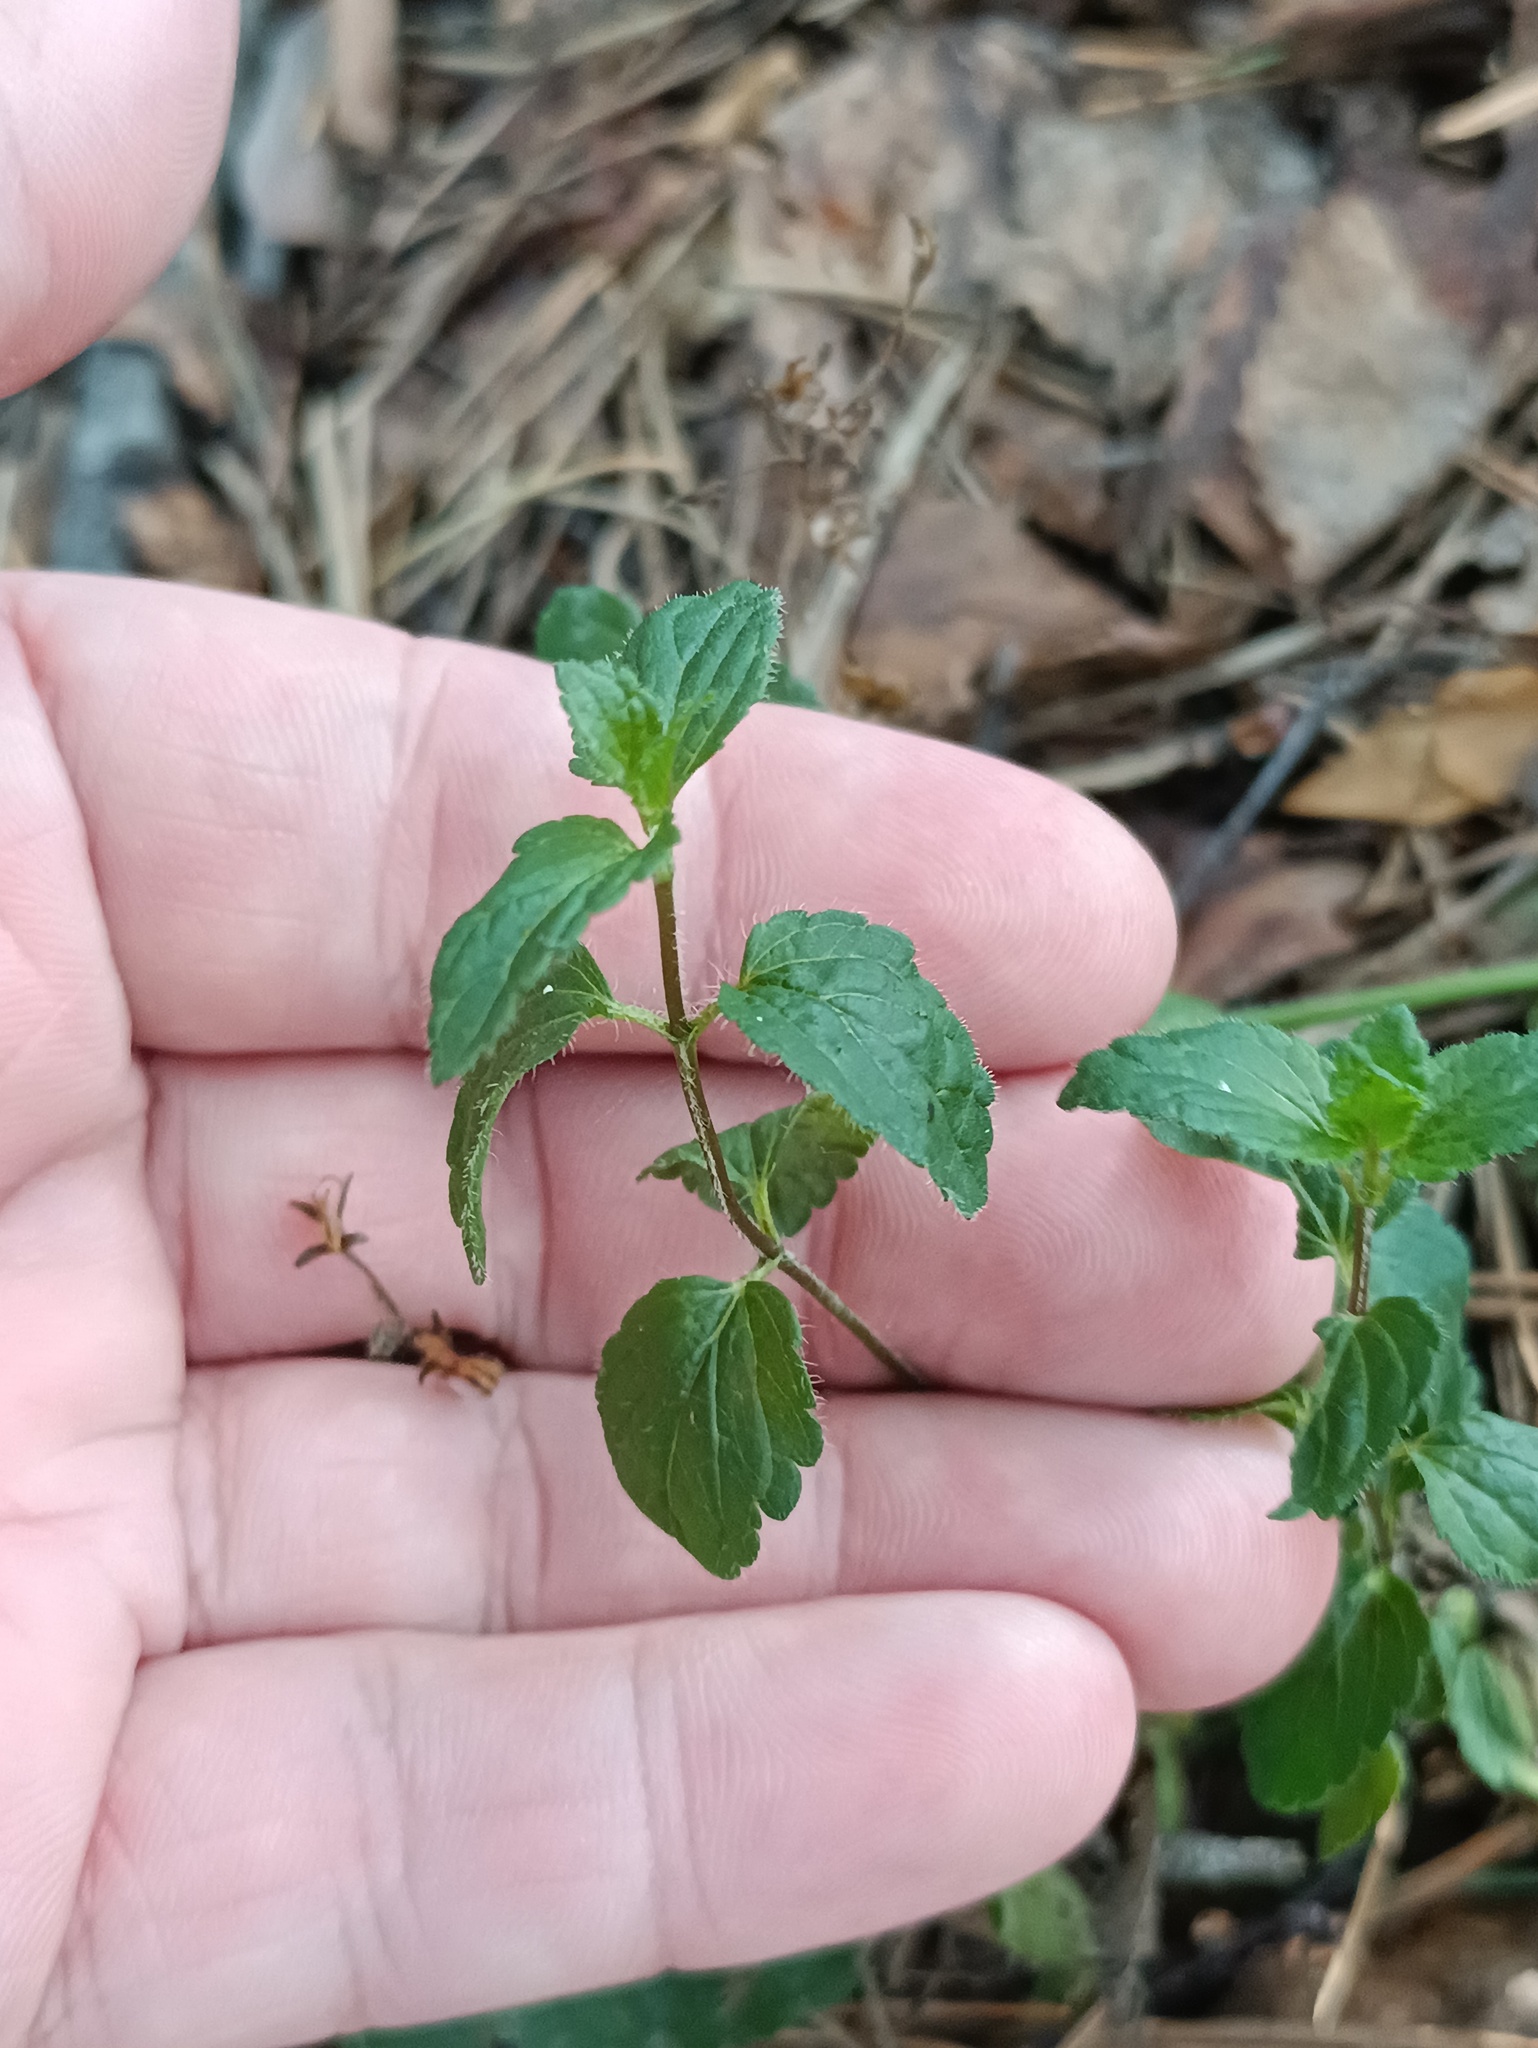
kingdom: Plantae
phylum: Tracheophyta
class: Magnoliopsida
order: Lamiales
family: Plantaginaceae
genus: Veronica
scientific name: Veronica chamaedrys
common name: Germander speedwell
